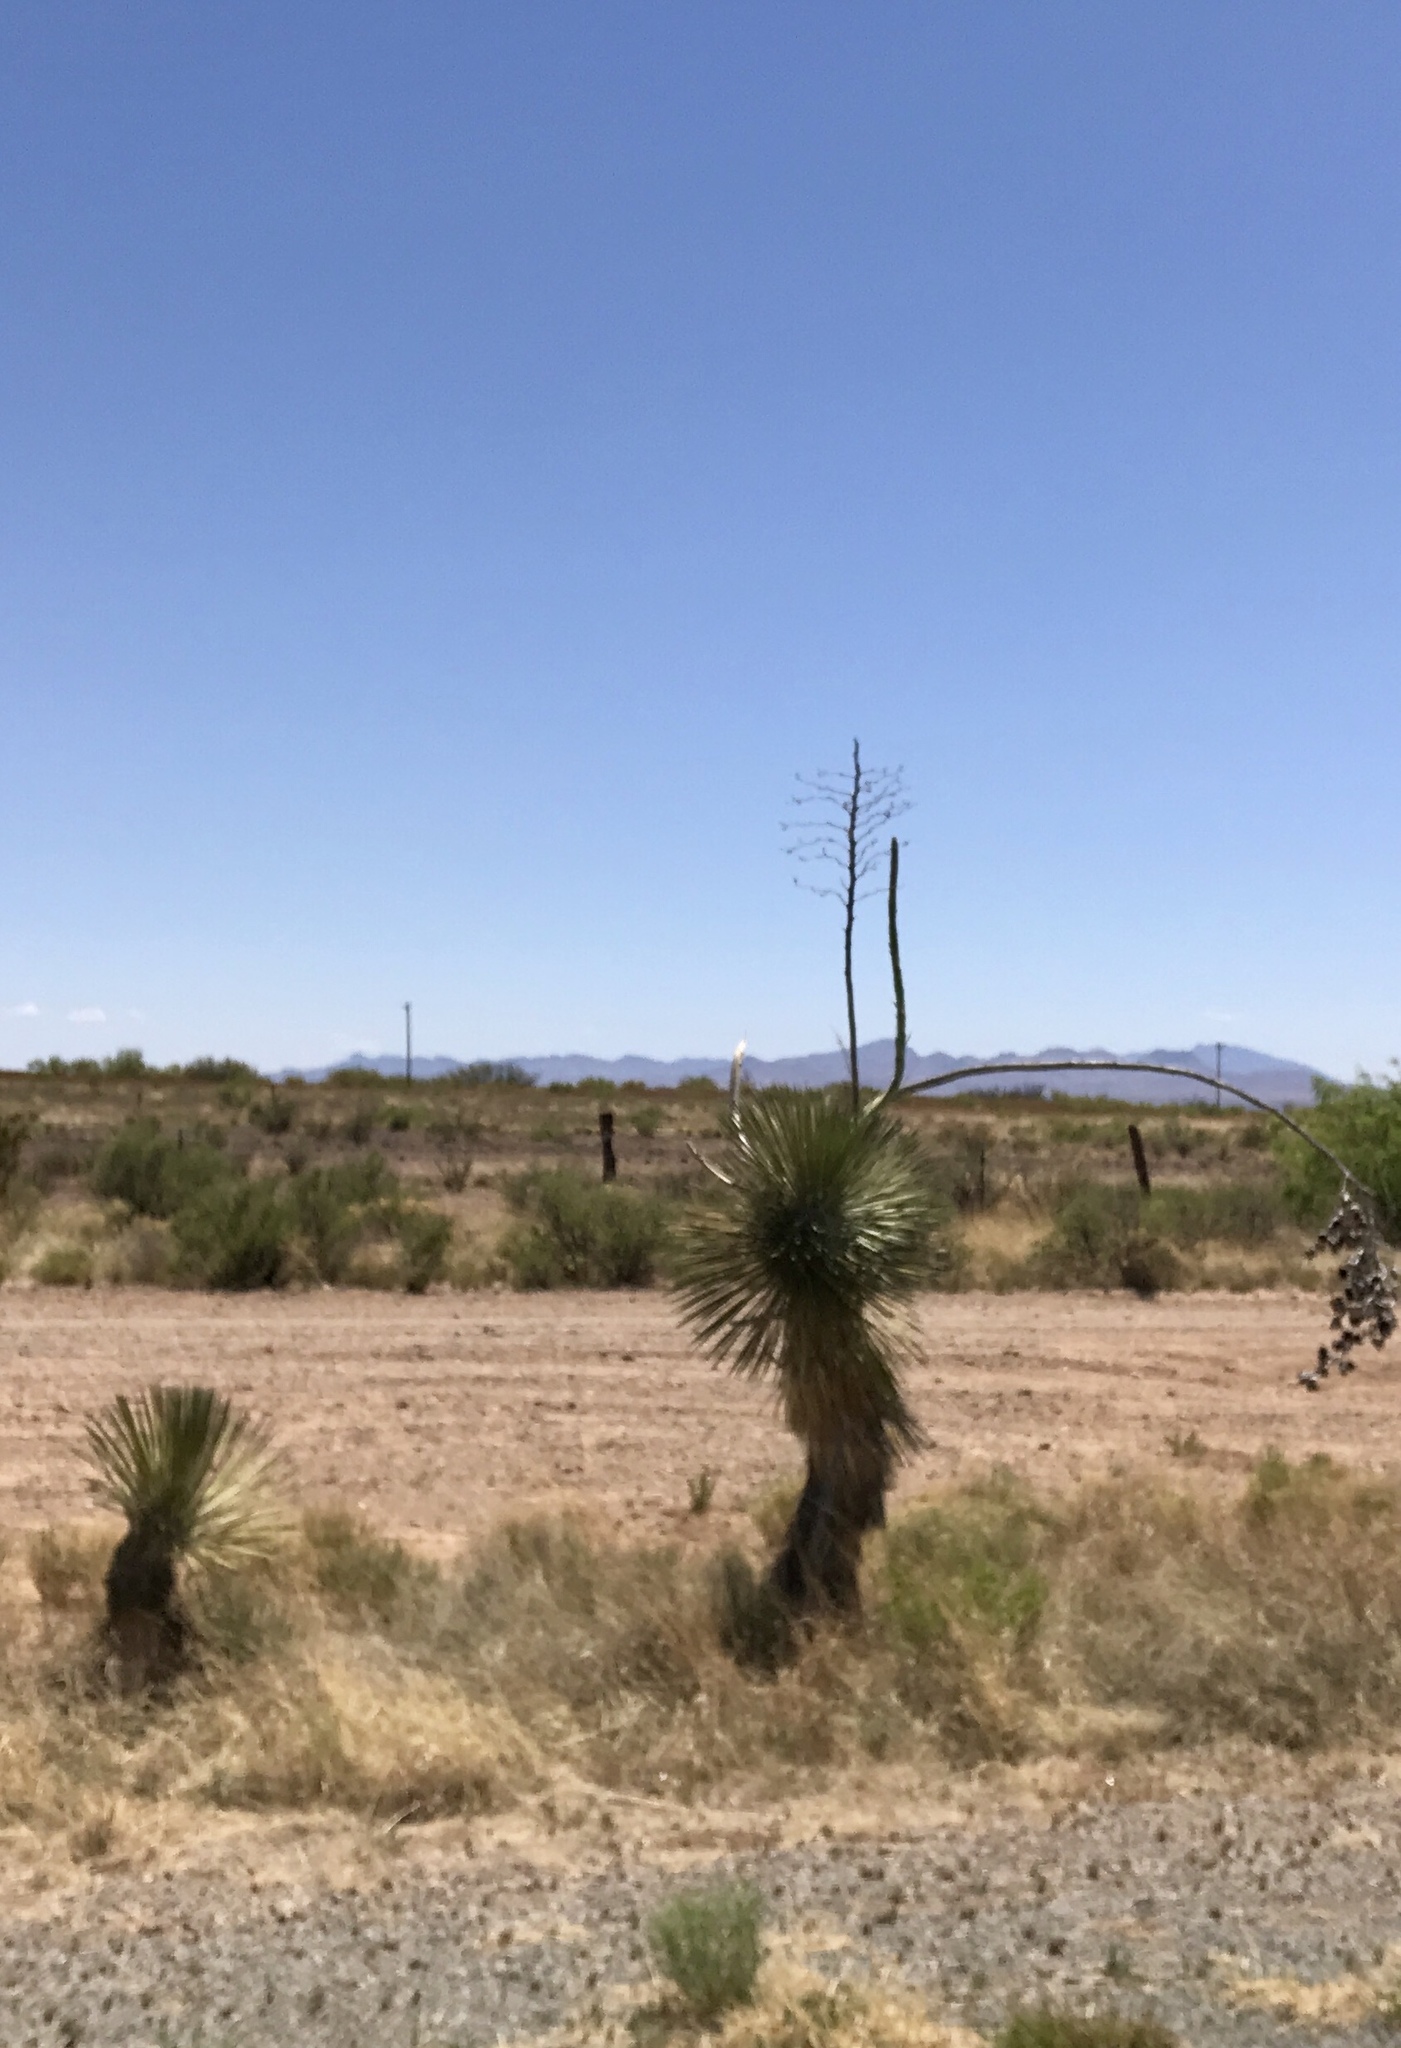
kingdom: Plantae
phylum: Tracheophyta
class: Liliopsida
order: Asparagales
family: Asparagaceae
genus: Yucca
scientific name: Yucca elata
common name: Palmella
